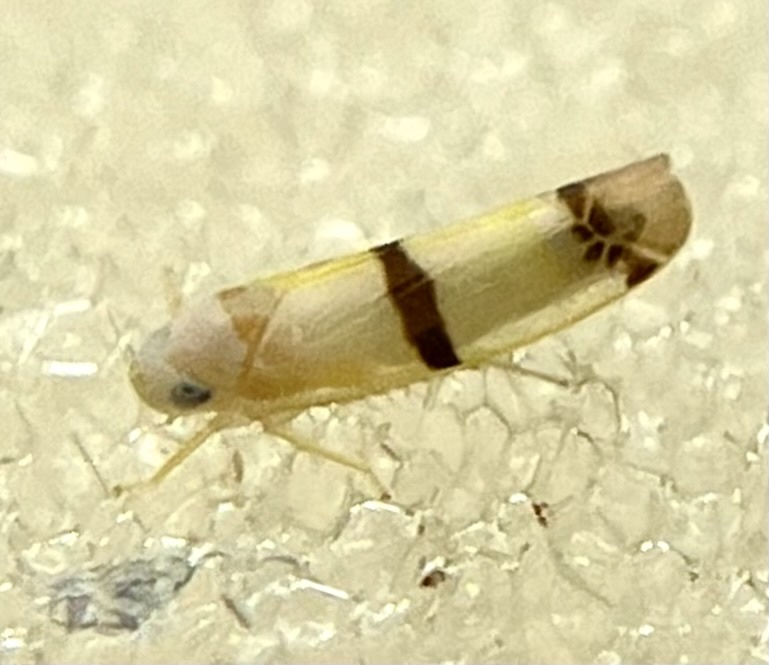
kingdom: Animalia
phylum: Arthropoda
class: Insecta
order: Hemiptera
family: Cicadellidae
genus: Empoa
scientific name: Empoa gillettei
